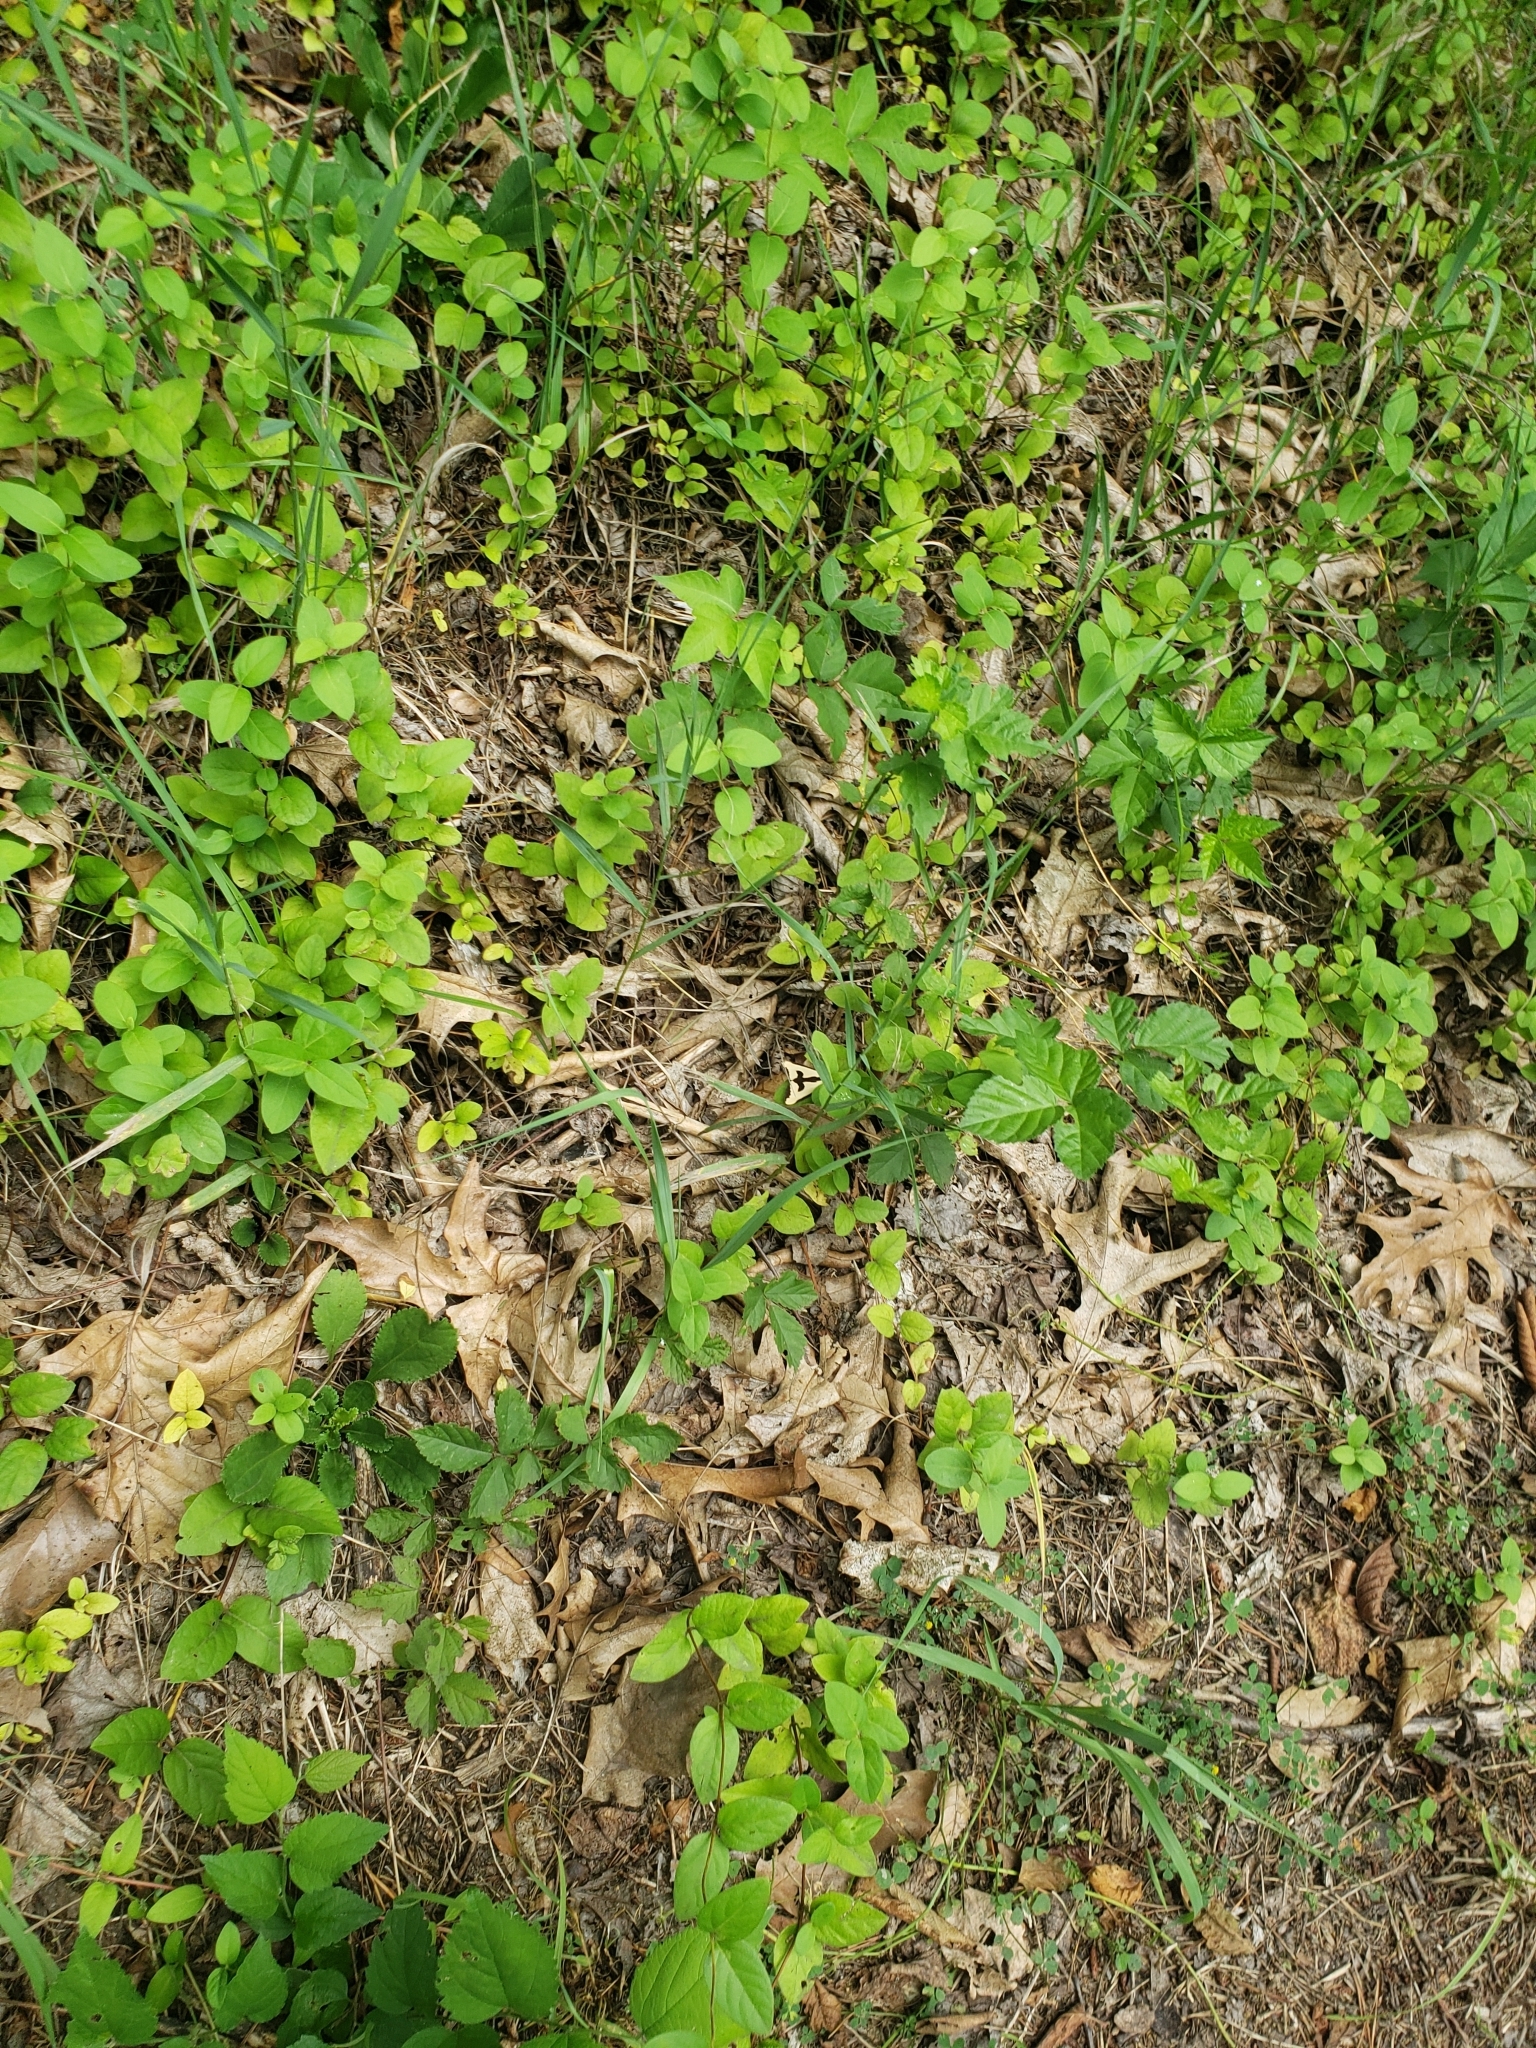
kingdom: Animalia
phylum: Arthropoda
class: Insecta
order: Lepidoptera
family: Erebidae
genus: Haploa
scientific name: Haploa clymene
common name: Clymene moth
